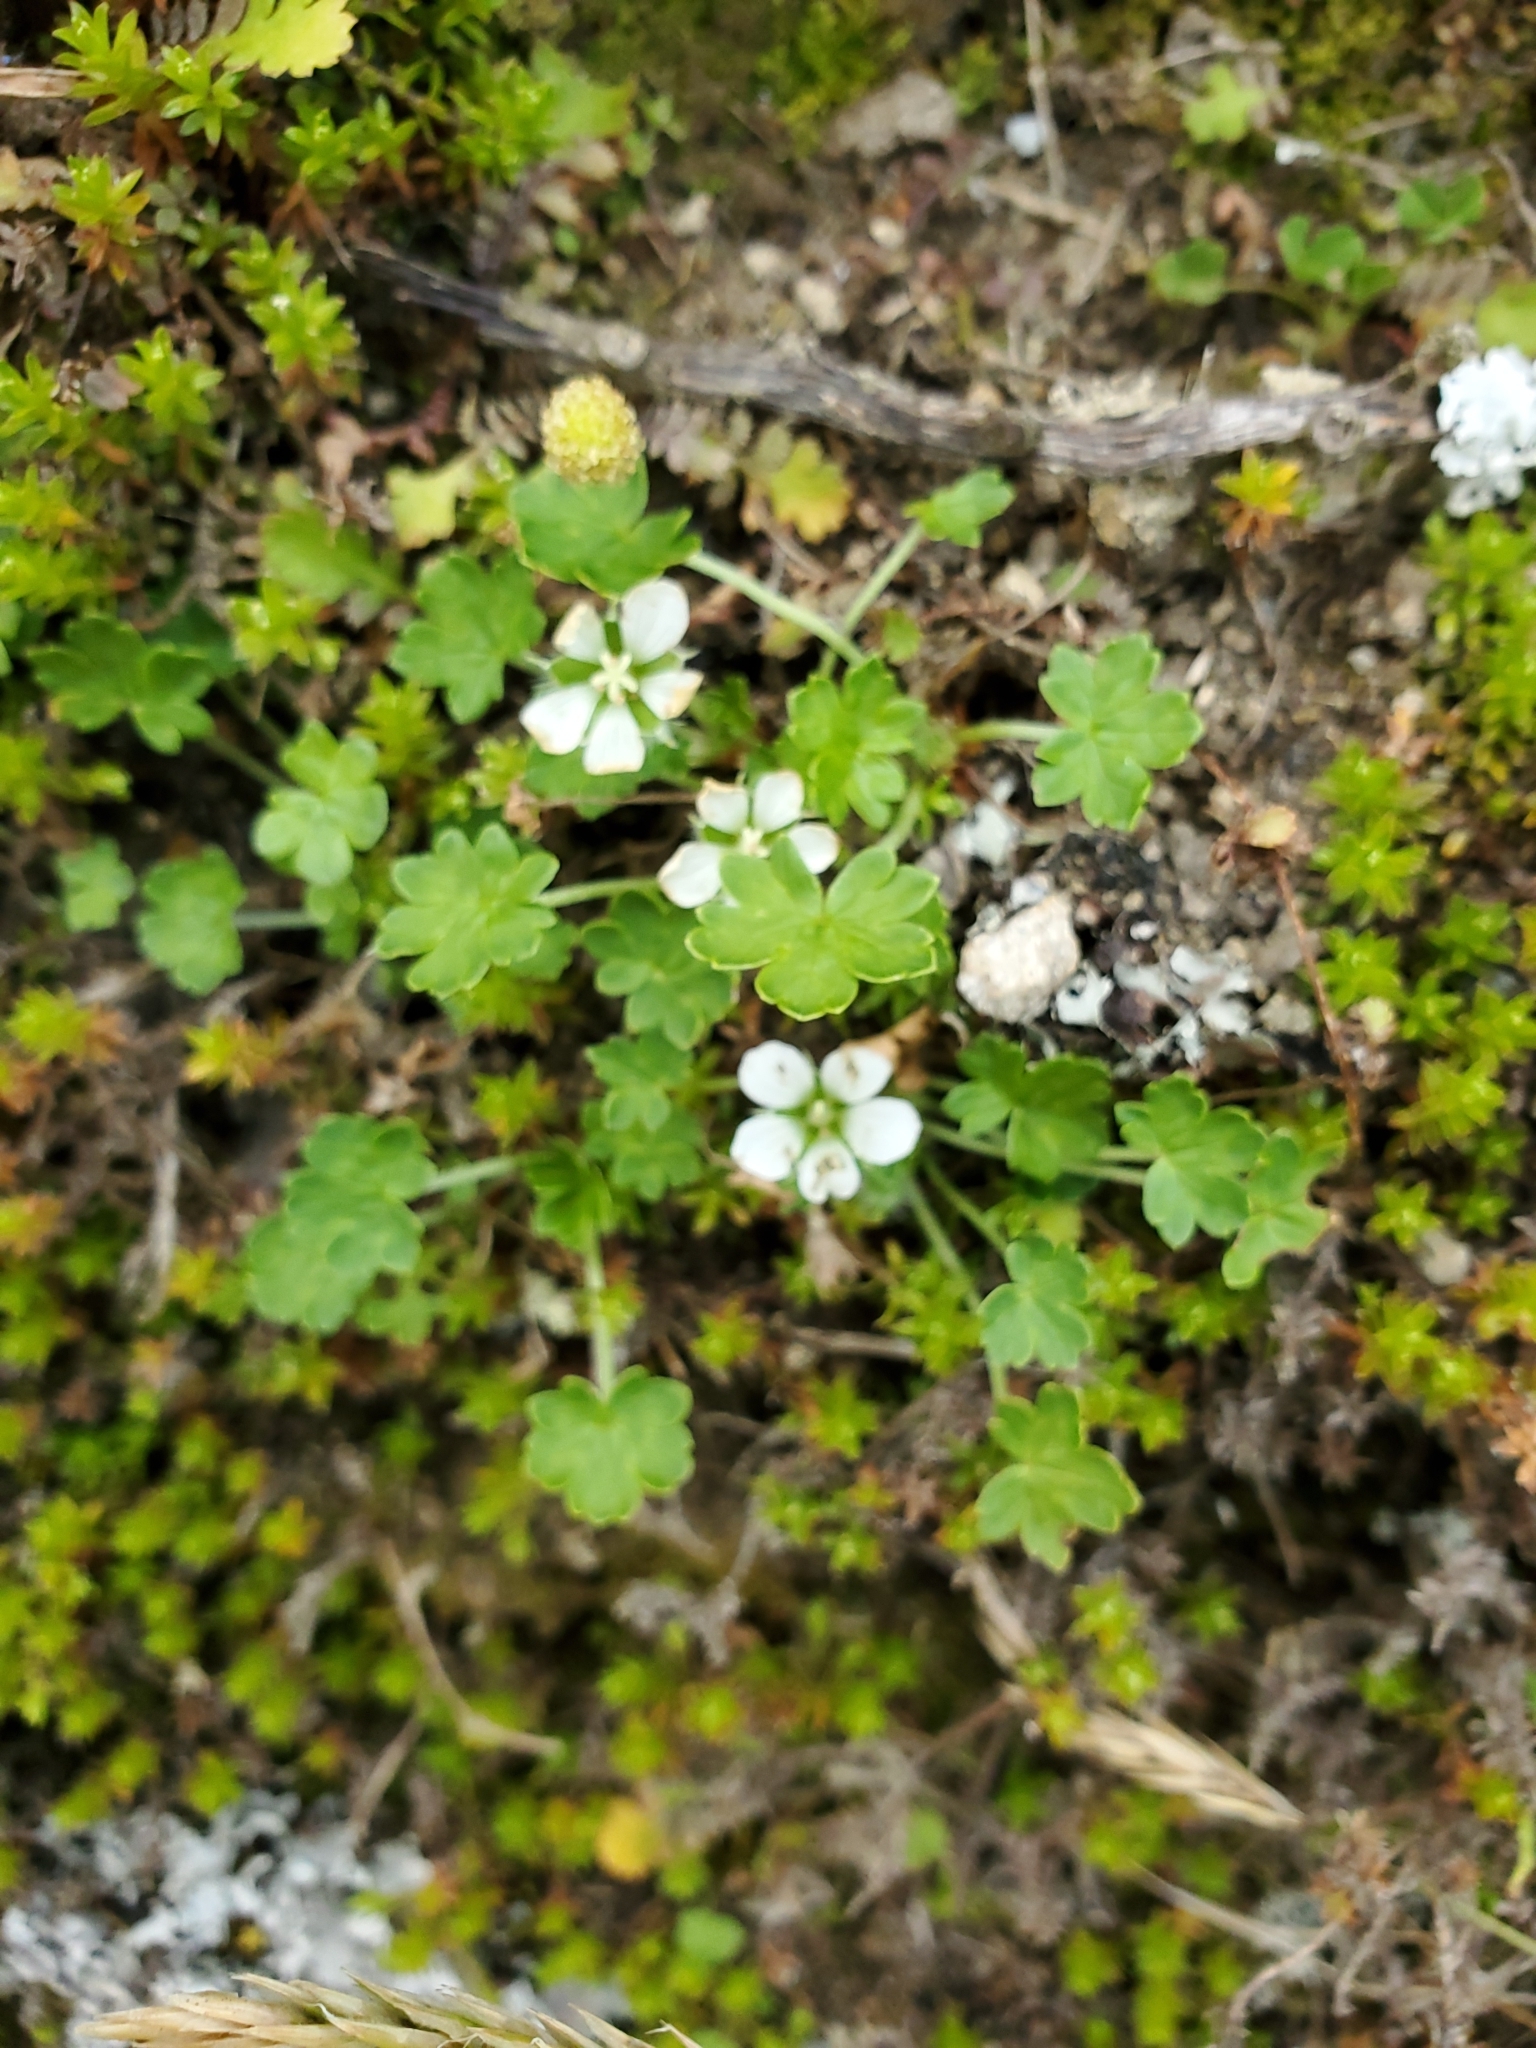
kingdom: Plantae
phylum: Tracheophyta
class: Magnoliopsida
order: Geraniales
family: Geraniaceae
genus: Geranium
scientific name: Geranium brevicaule
